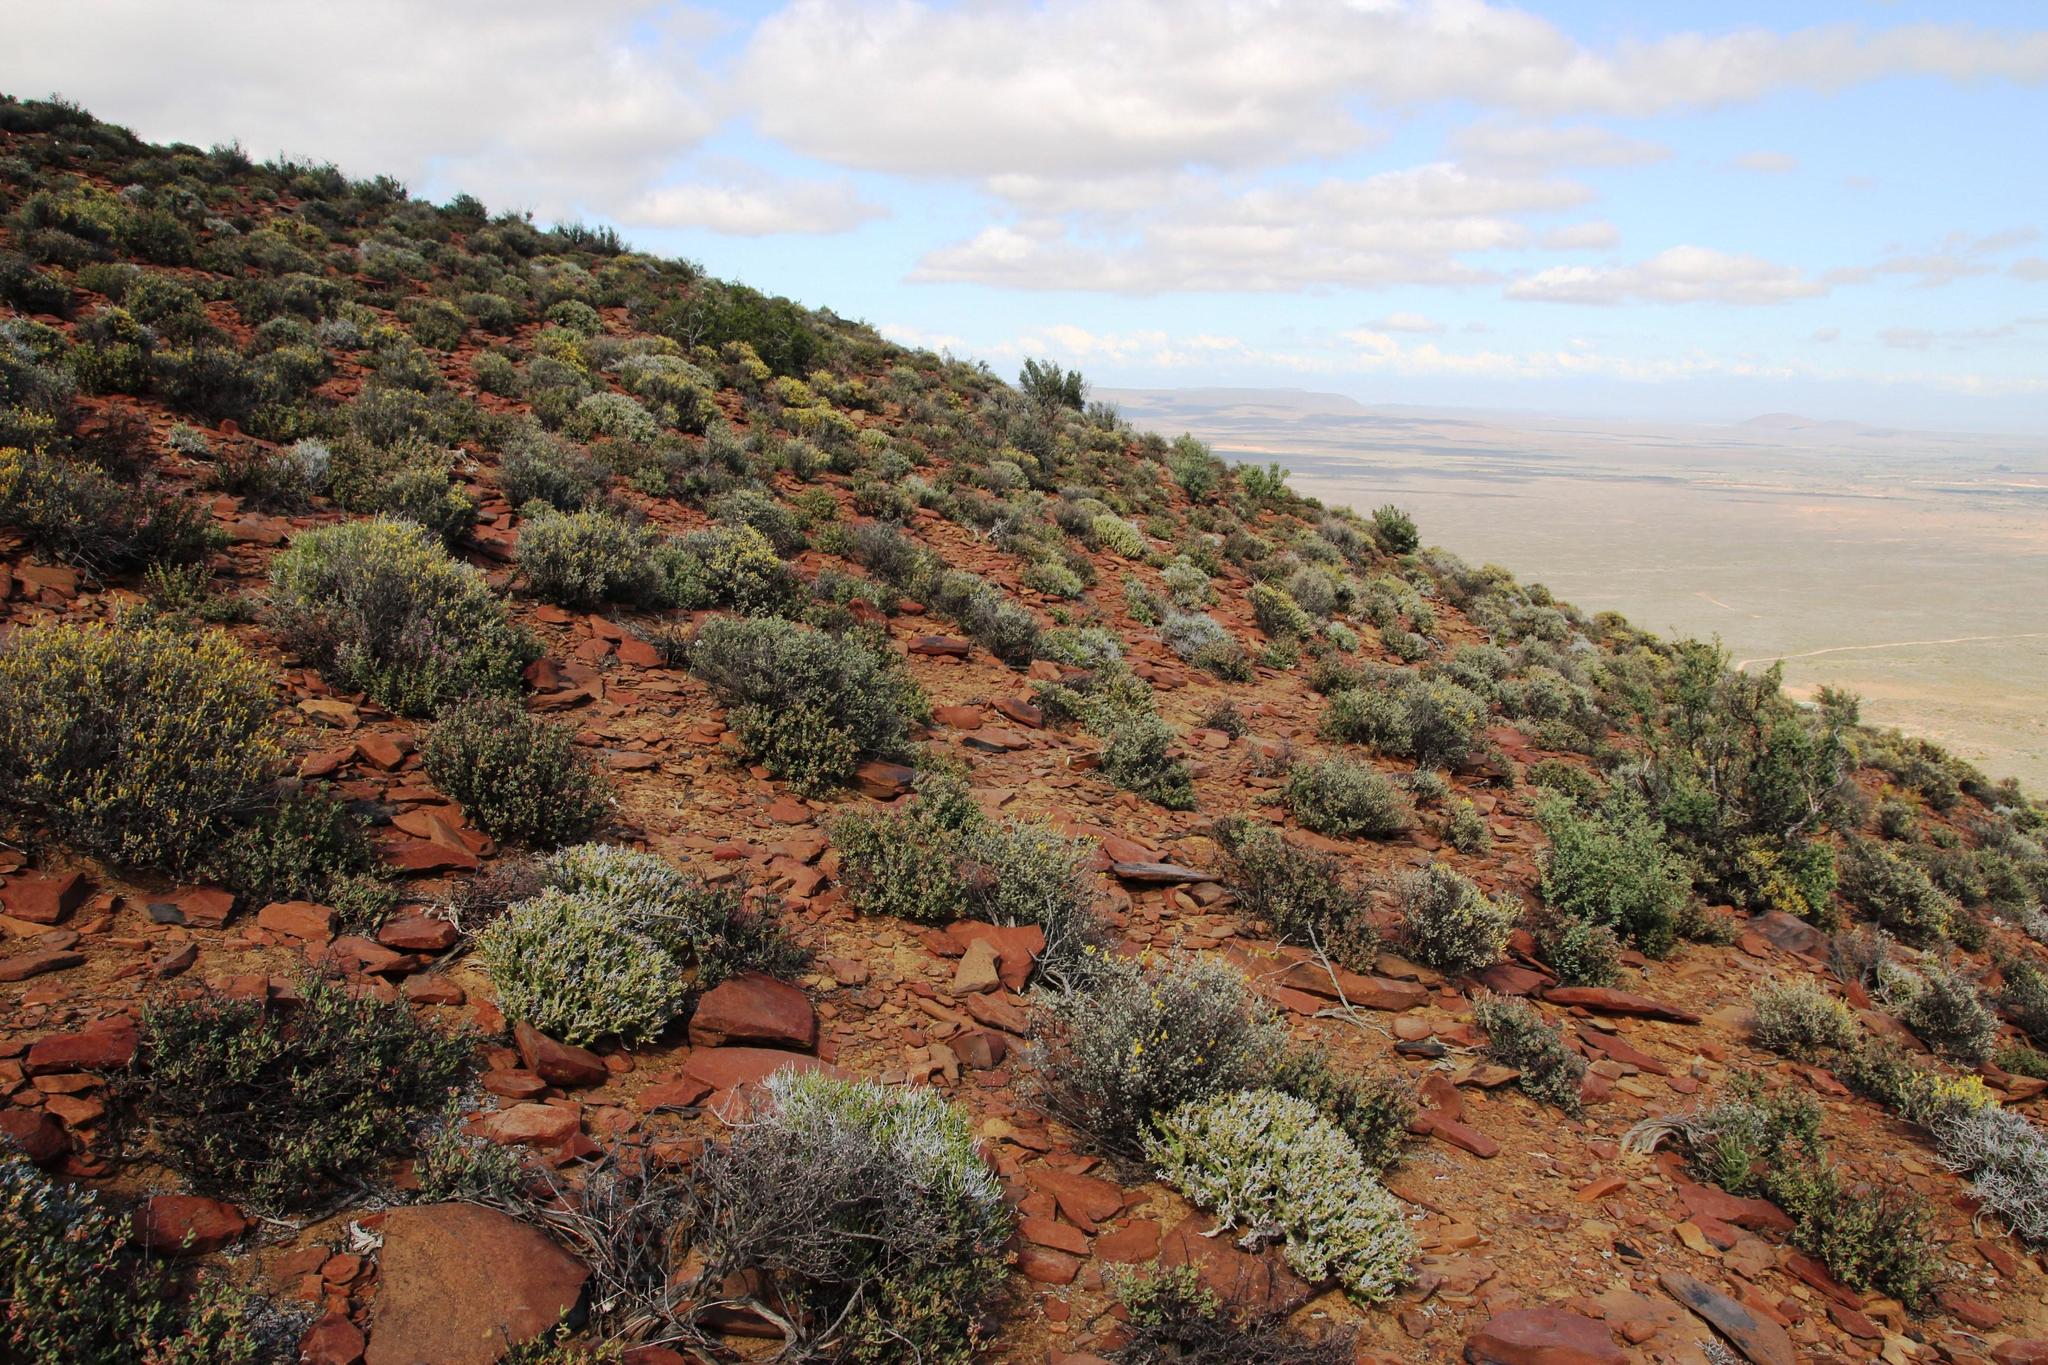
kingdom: Plantae
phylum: Tracheophyta
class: Magnoliopsida
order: Lamiales
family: Acanthaceae
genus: Pogonospermum
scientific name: Pogonospermum
